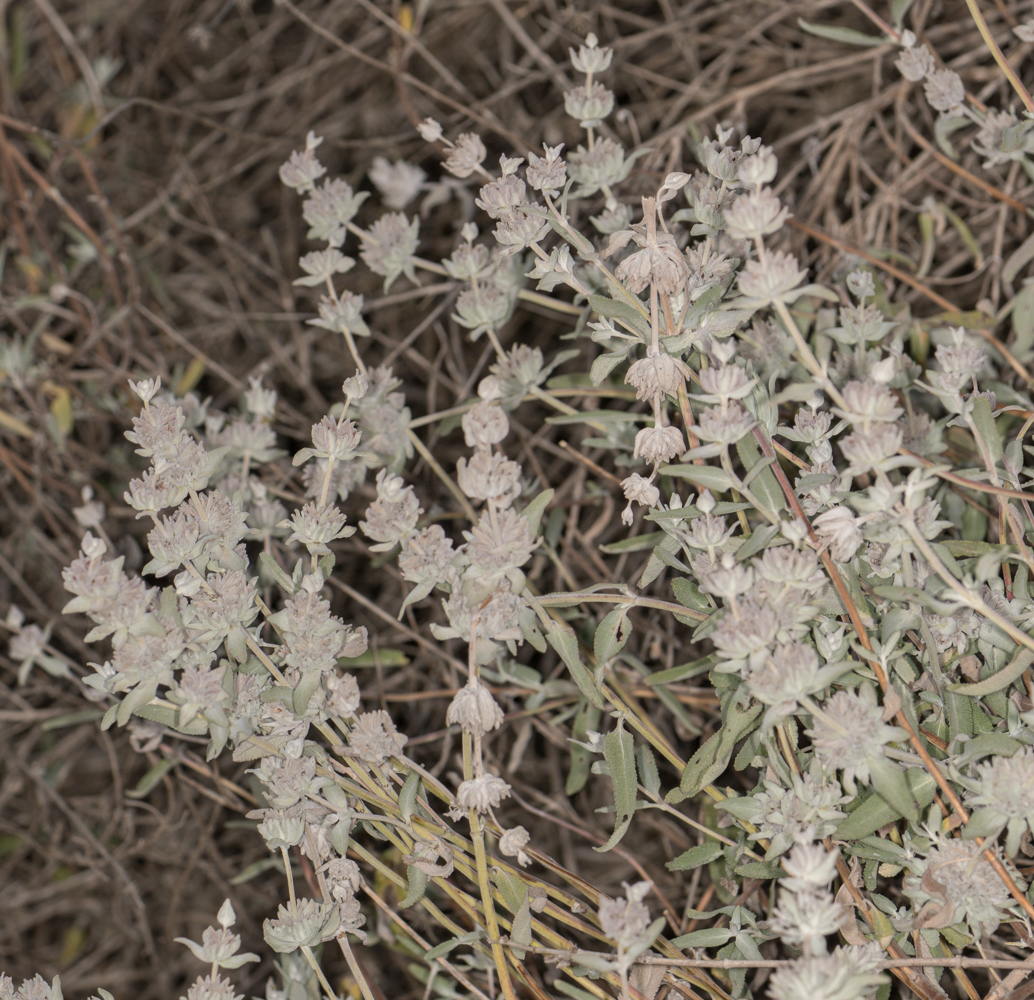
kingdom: Plantae
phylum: Tracheophyta
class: Magnoliopsida
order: Lamiales
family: Lamiaceae
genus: Salvia
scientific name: Salvia leucophylla
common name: Purple sage
